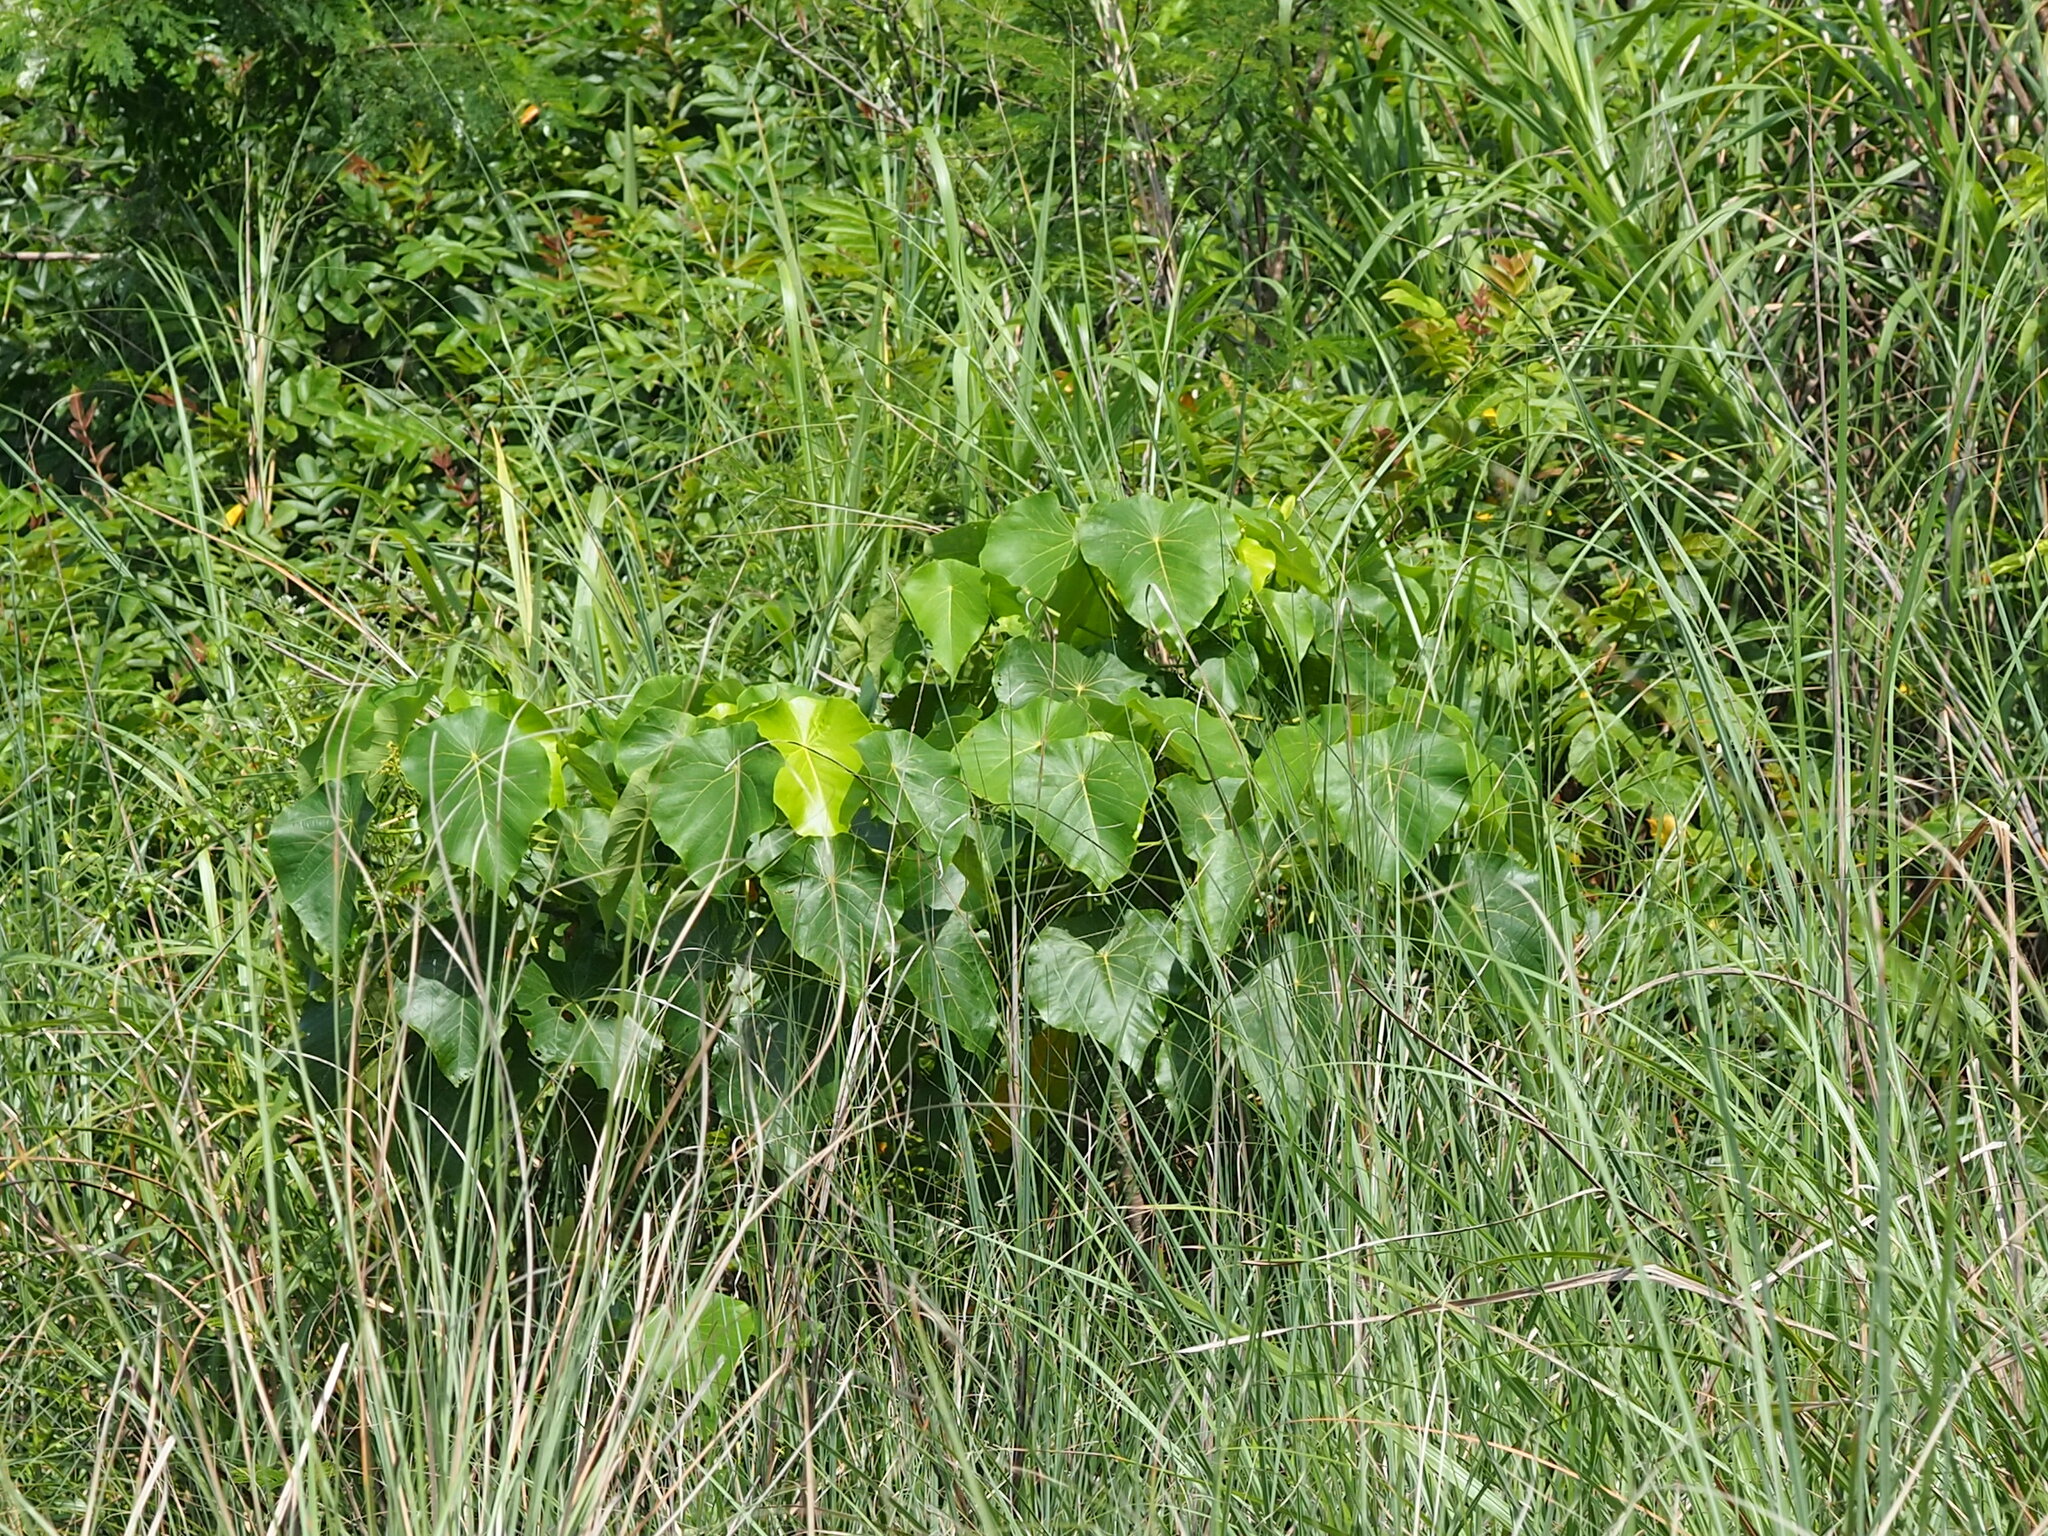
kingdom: Plantae
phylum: Tracheophyta
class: Magnoliopsida
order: Malpighiales
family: Euphorbiaceae
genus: Macaranga
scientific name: Macaranga tanarius
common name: Parasol leaf tree
